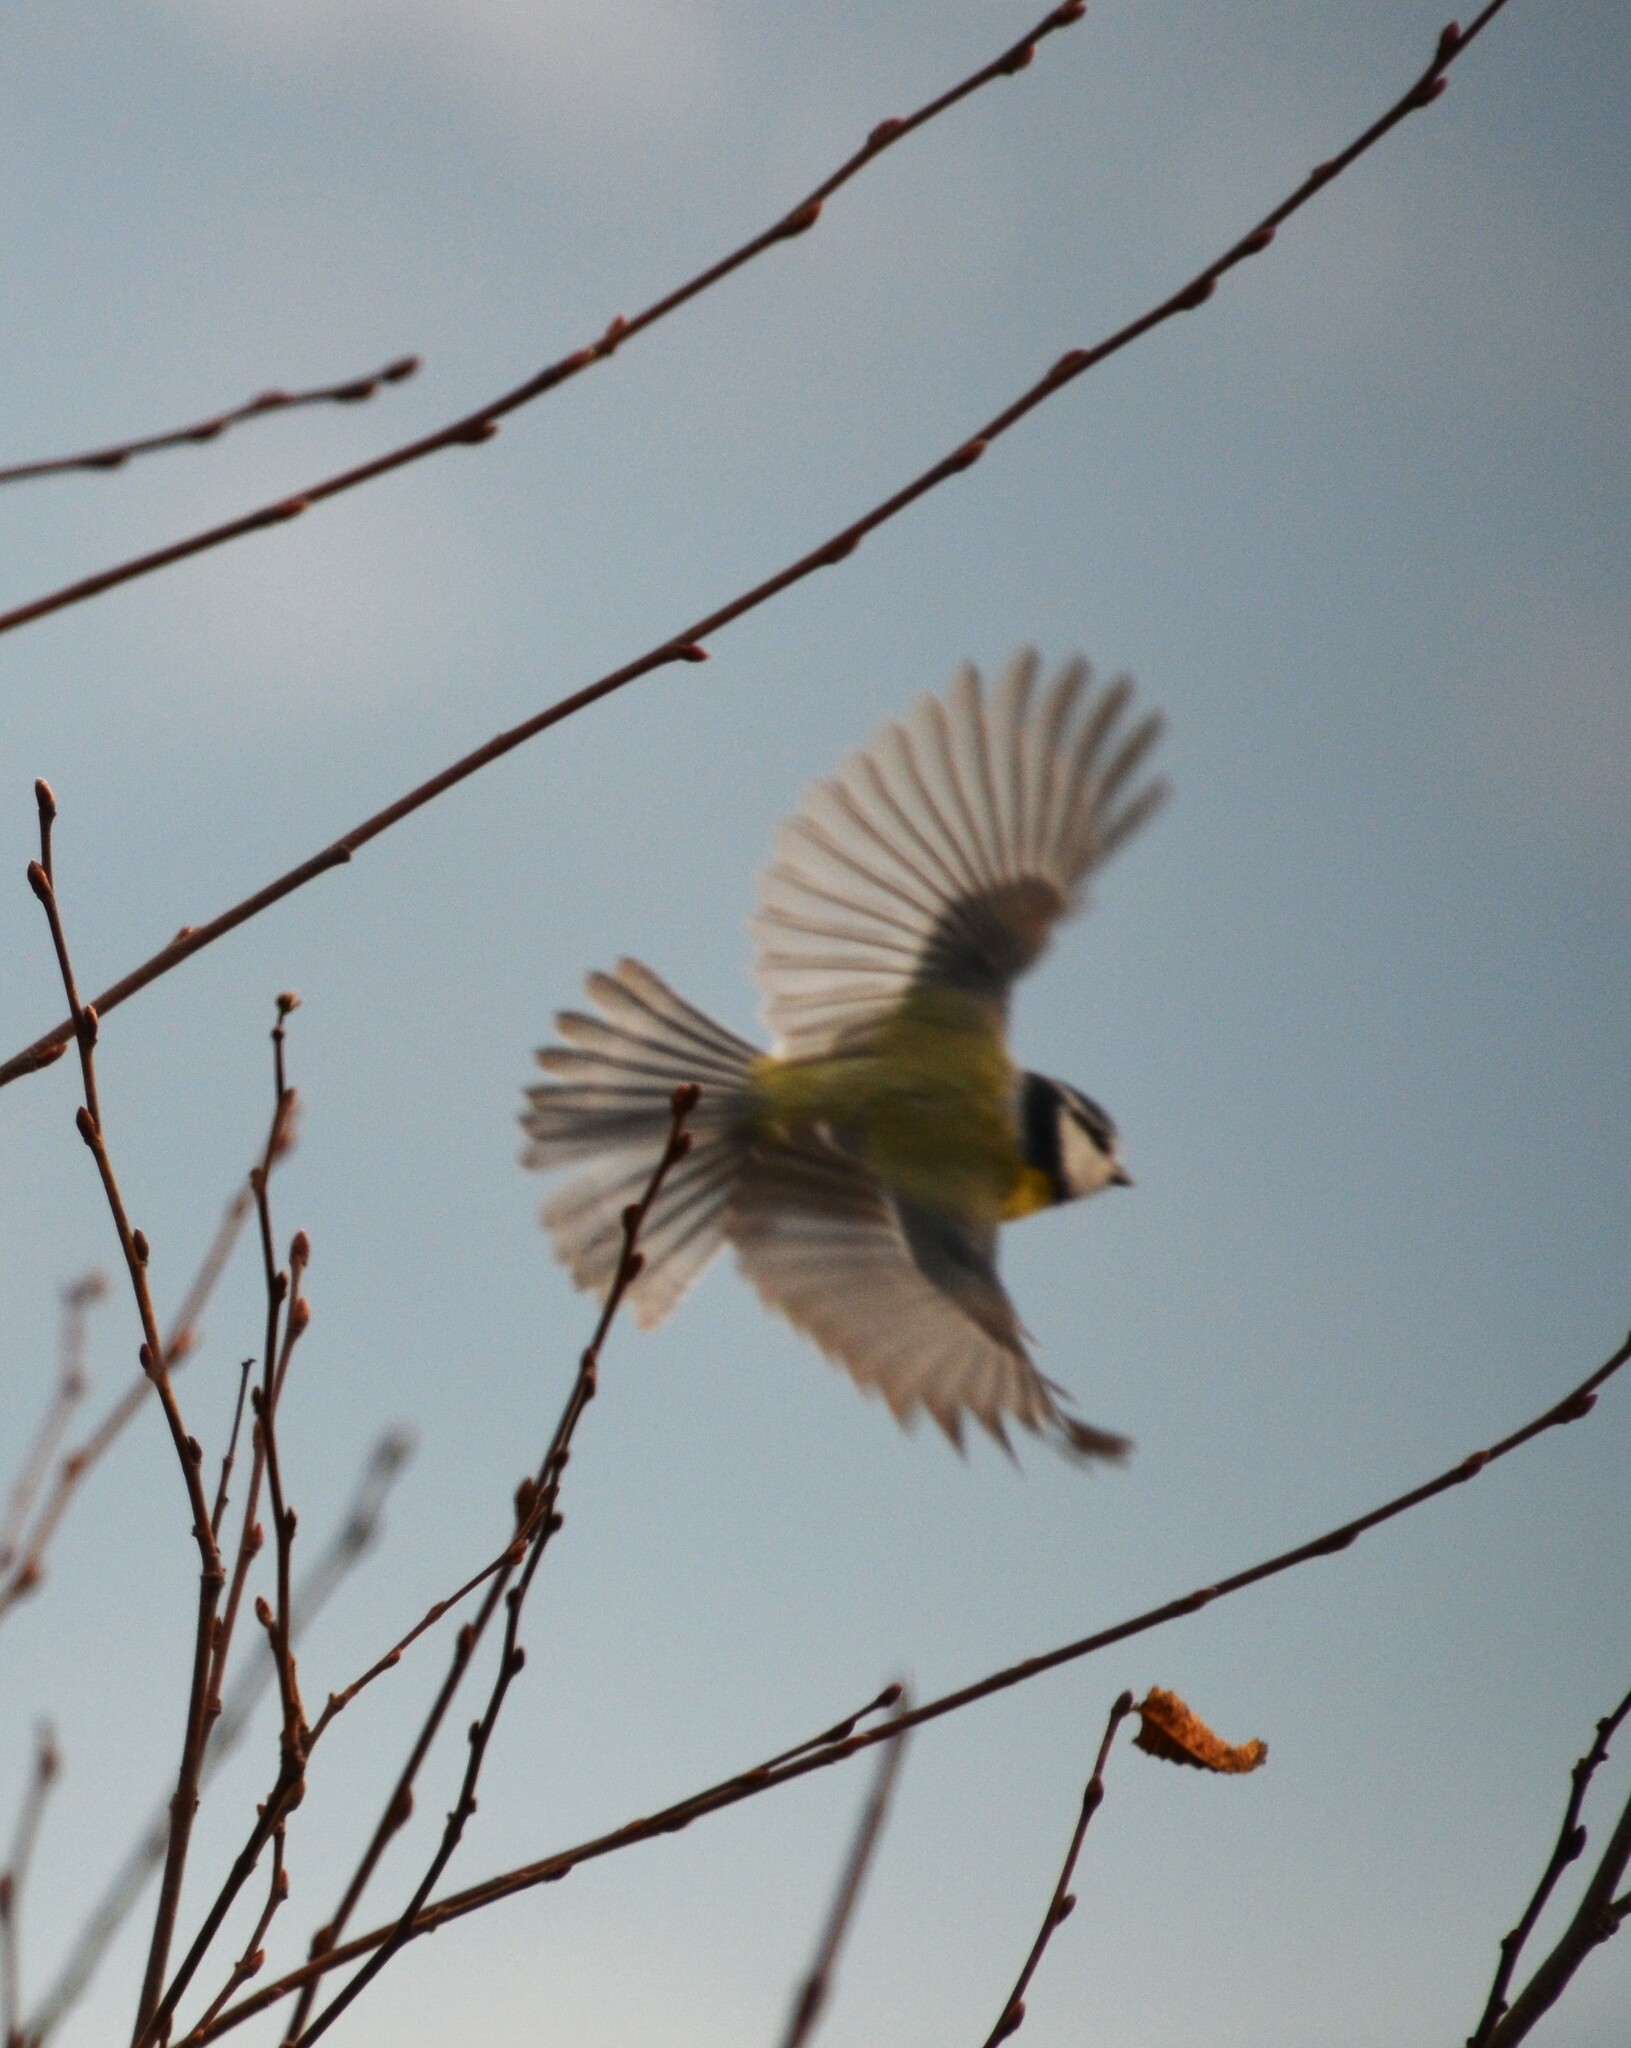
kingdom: Animalia
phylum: Chordata
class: Aves
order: Passeriformes
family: Paridae
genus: Cyanistes
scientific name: Cyanistes caeruleus
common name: Eurasian blue tit
